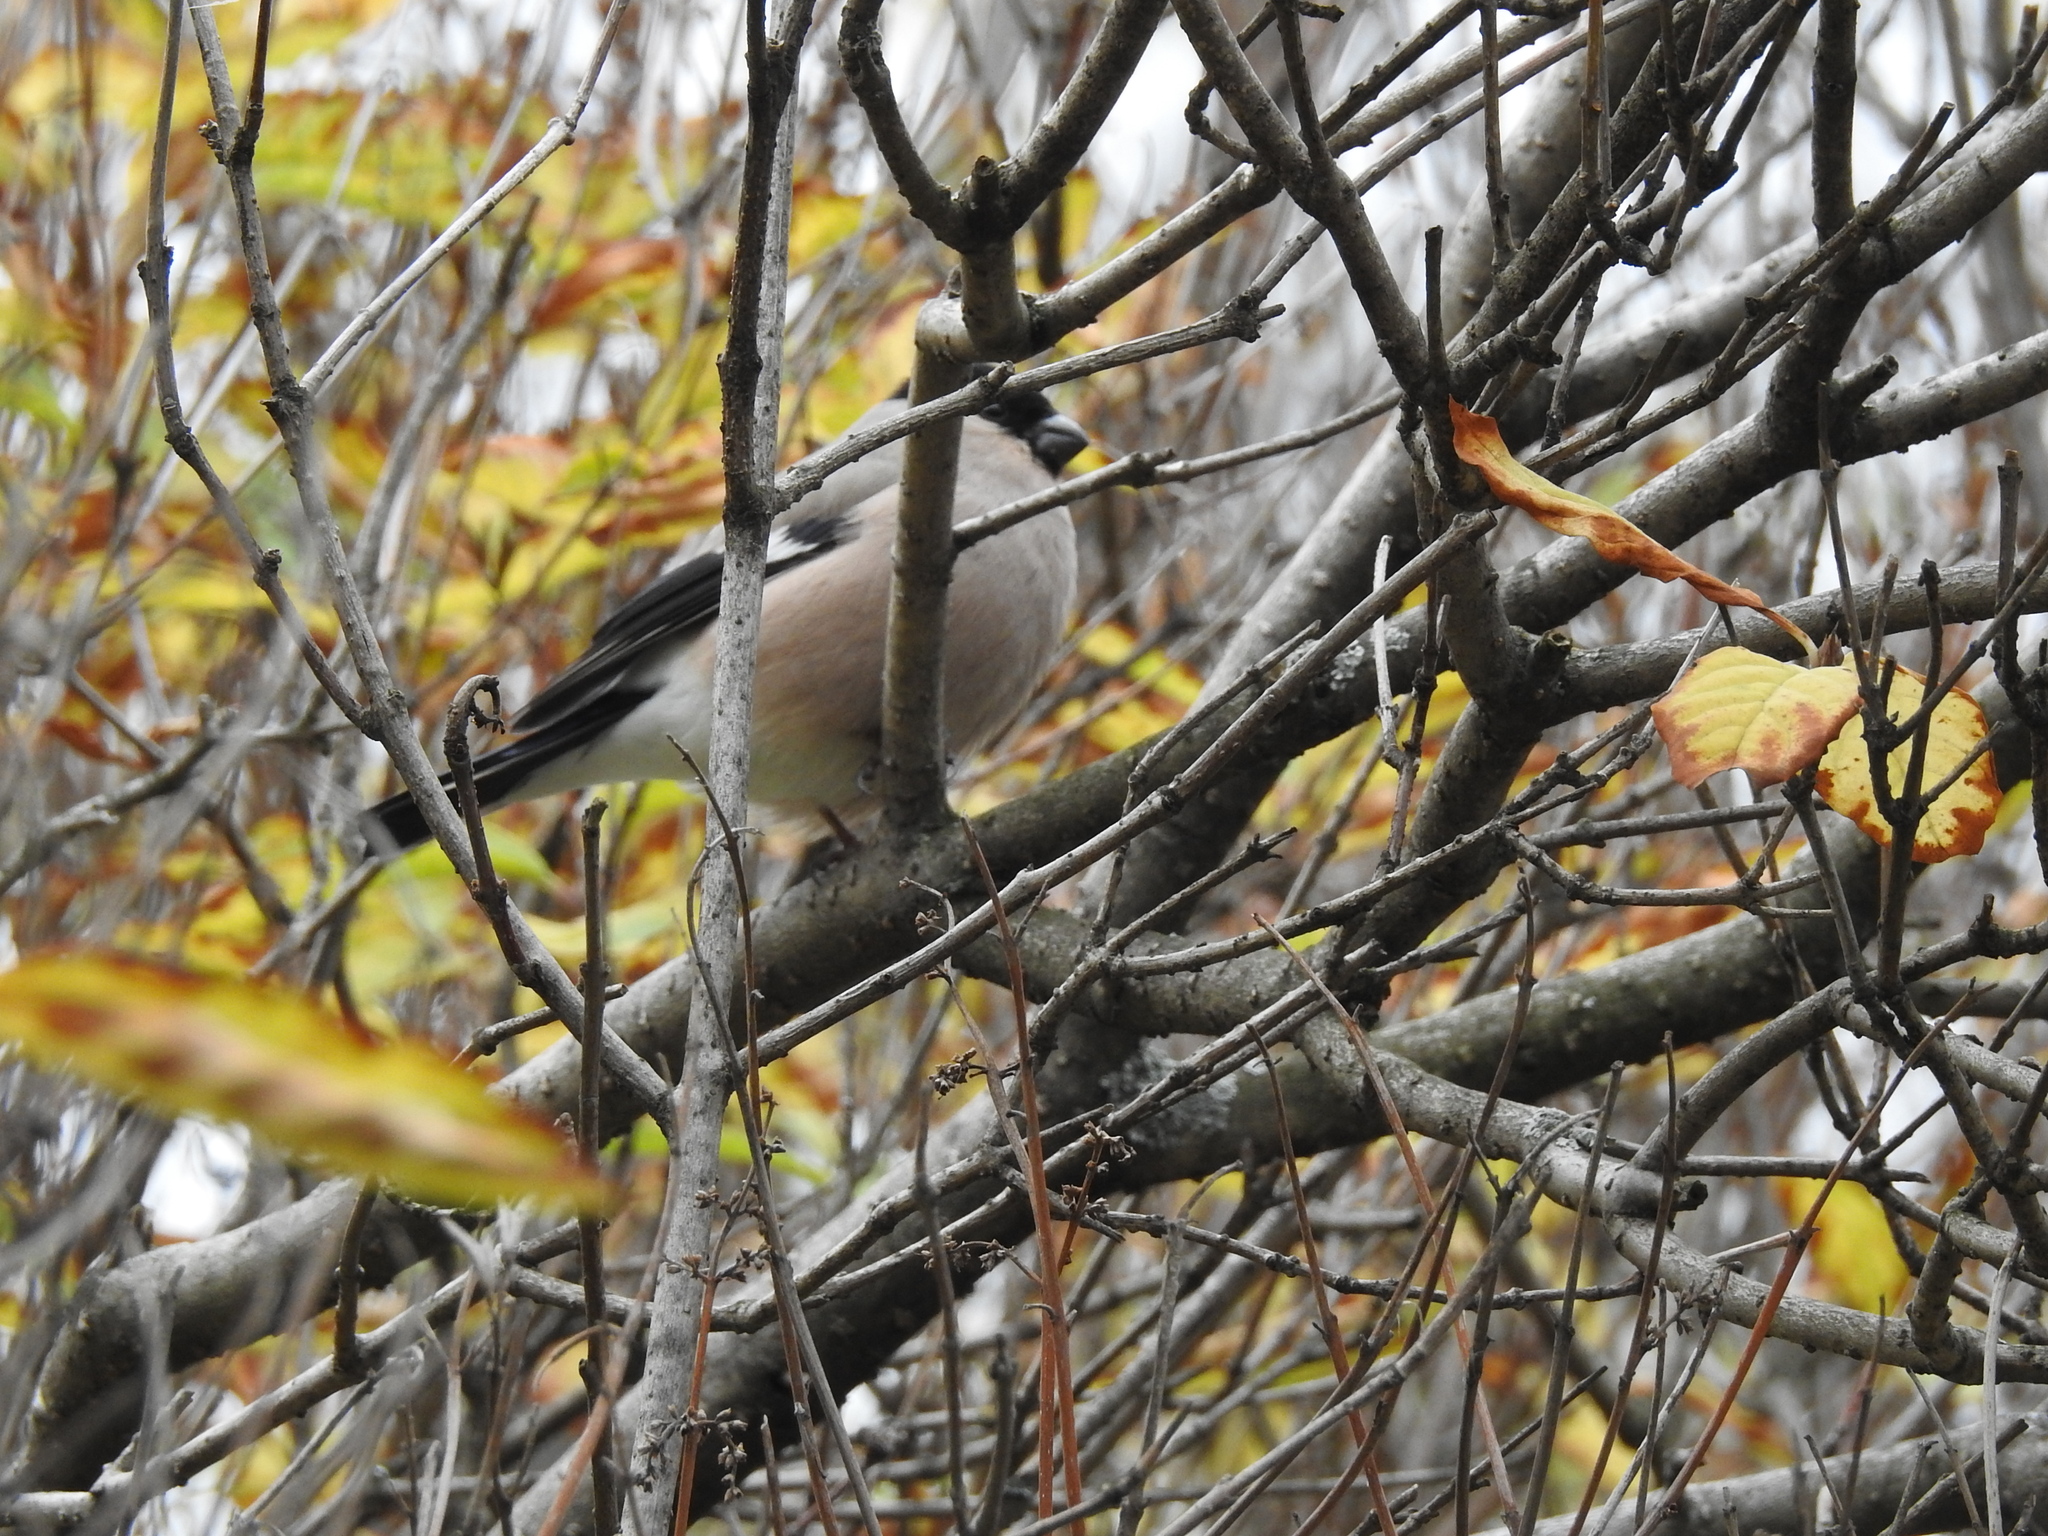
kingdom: Animalia
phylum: Chordata
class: Aves
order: Passeriformes
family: Fringillidae
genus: Pyrrhula
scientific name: Pyrrhula pyrrhula
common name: Eurasian bullfinch
